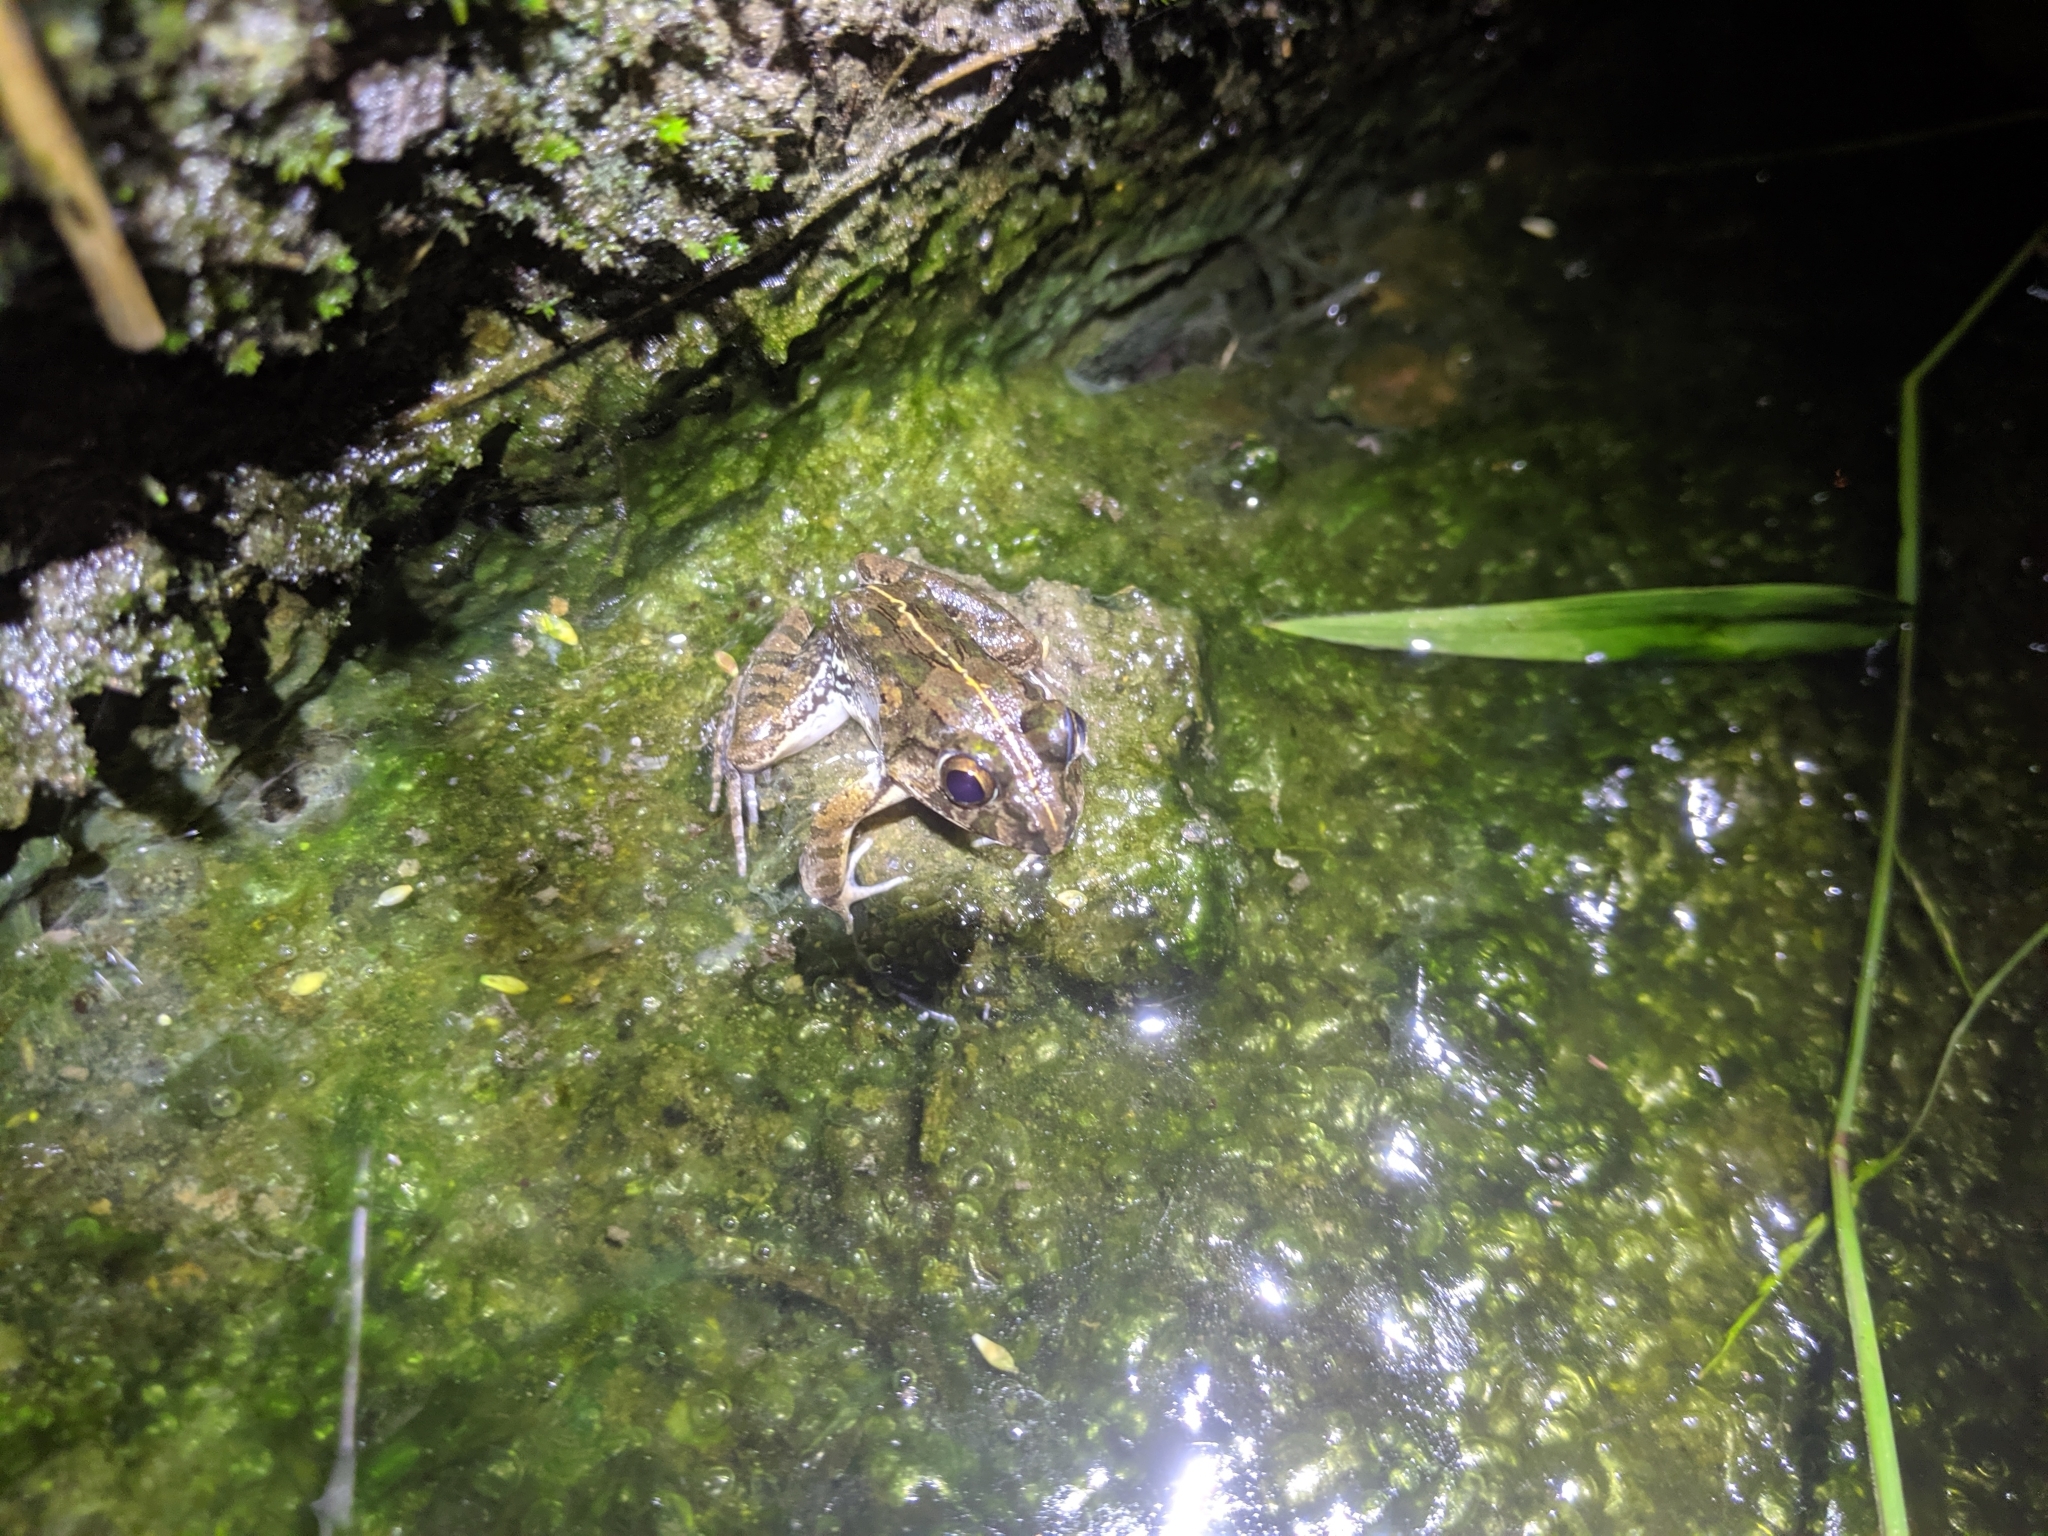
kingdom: Animalia
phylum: Chordata
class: Amphibia
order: Anura
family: Dicroglossidae
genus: Fejervarya
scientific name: Fejervarya limnocharis
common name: Asian grass frog/common pond frog/field frog/grass frog/indian rice frog
